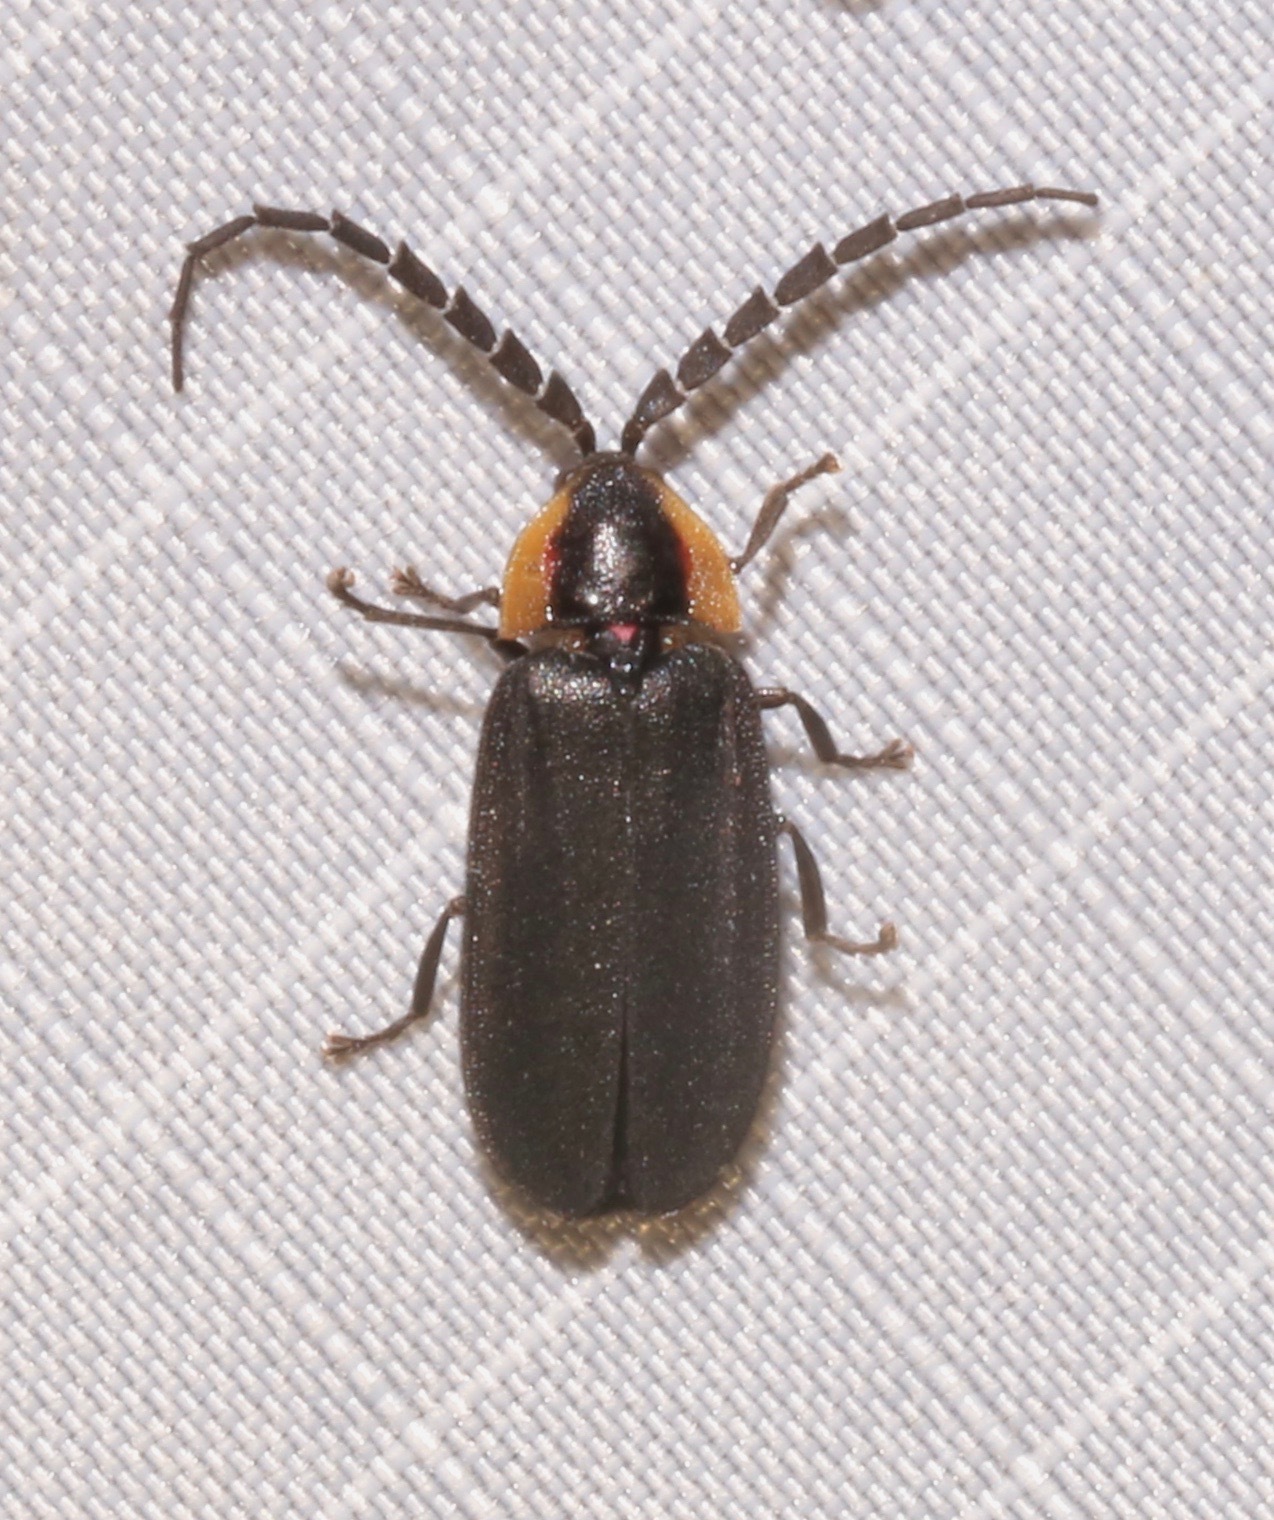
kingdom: Animalia
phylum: Arthropoda
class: Insecta
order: Coleoptera
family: Lampyridae
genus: Lucidota
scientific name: Lucidota atra
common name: Black firefly
